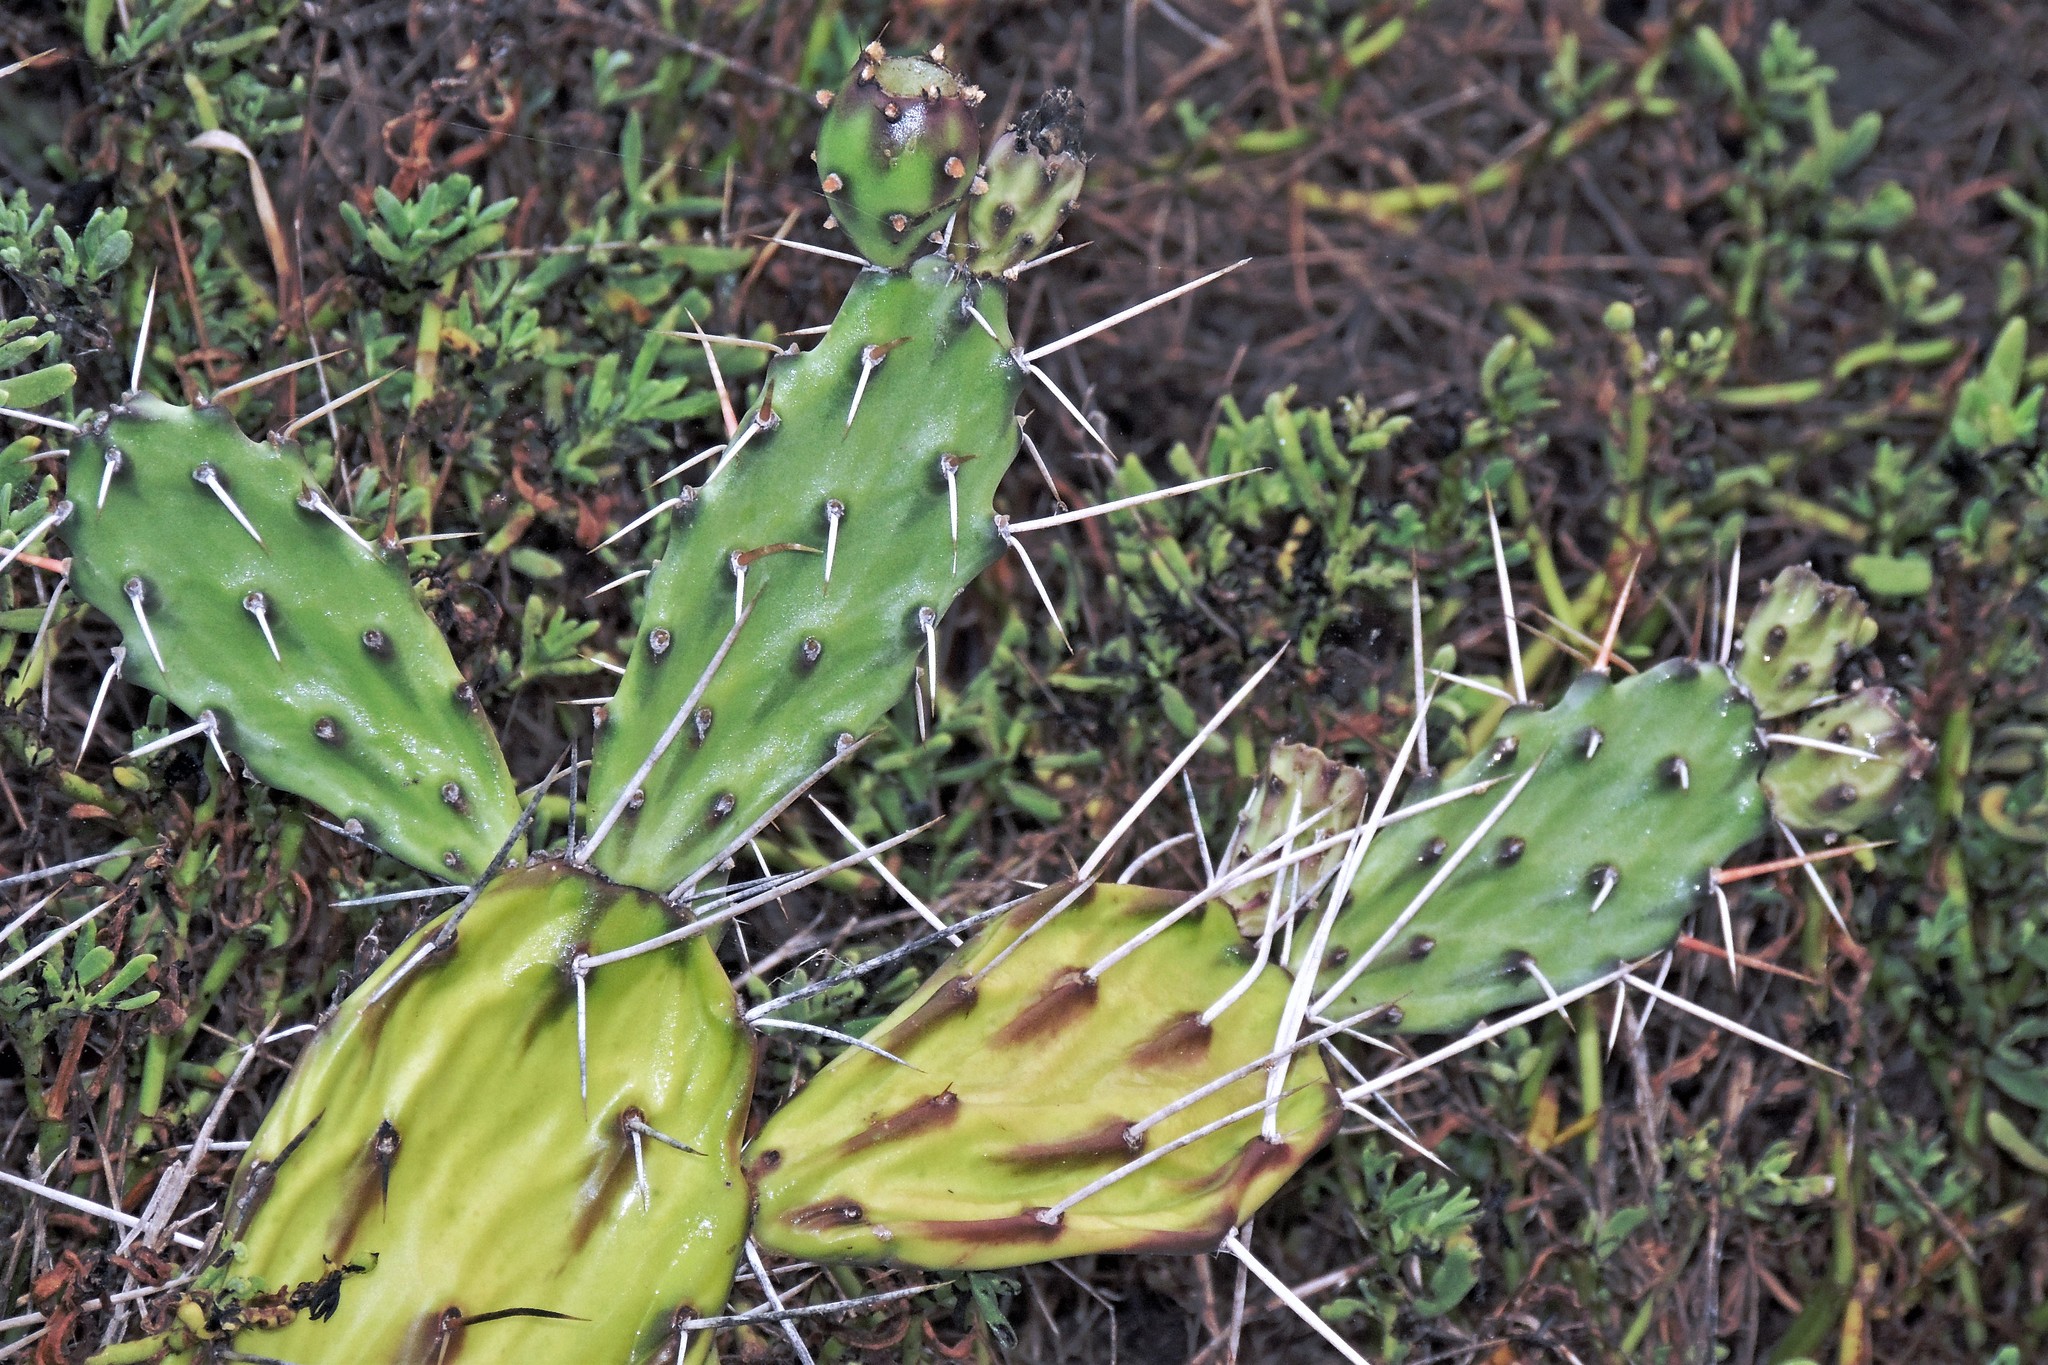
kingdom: Plantae
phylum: Tracheophyta
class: Magnoliopsida
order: Caryophyllales
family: Cactaceae
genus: Opuntia
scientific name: Opuntia anacantha
